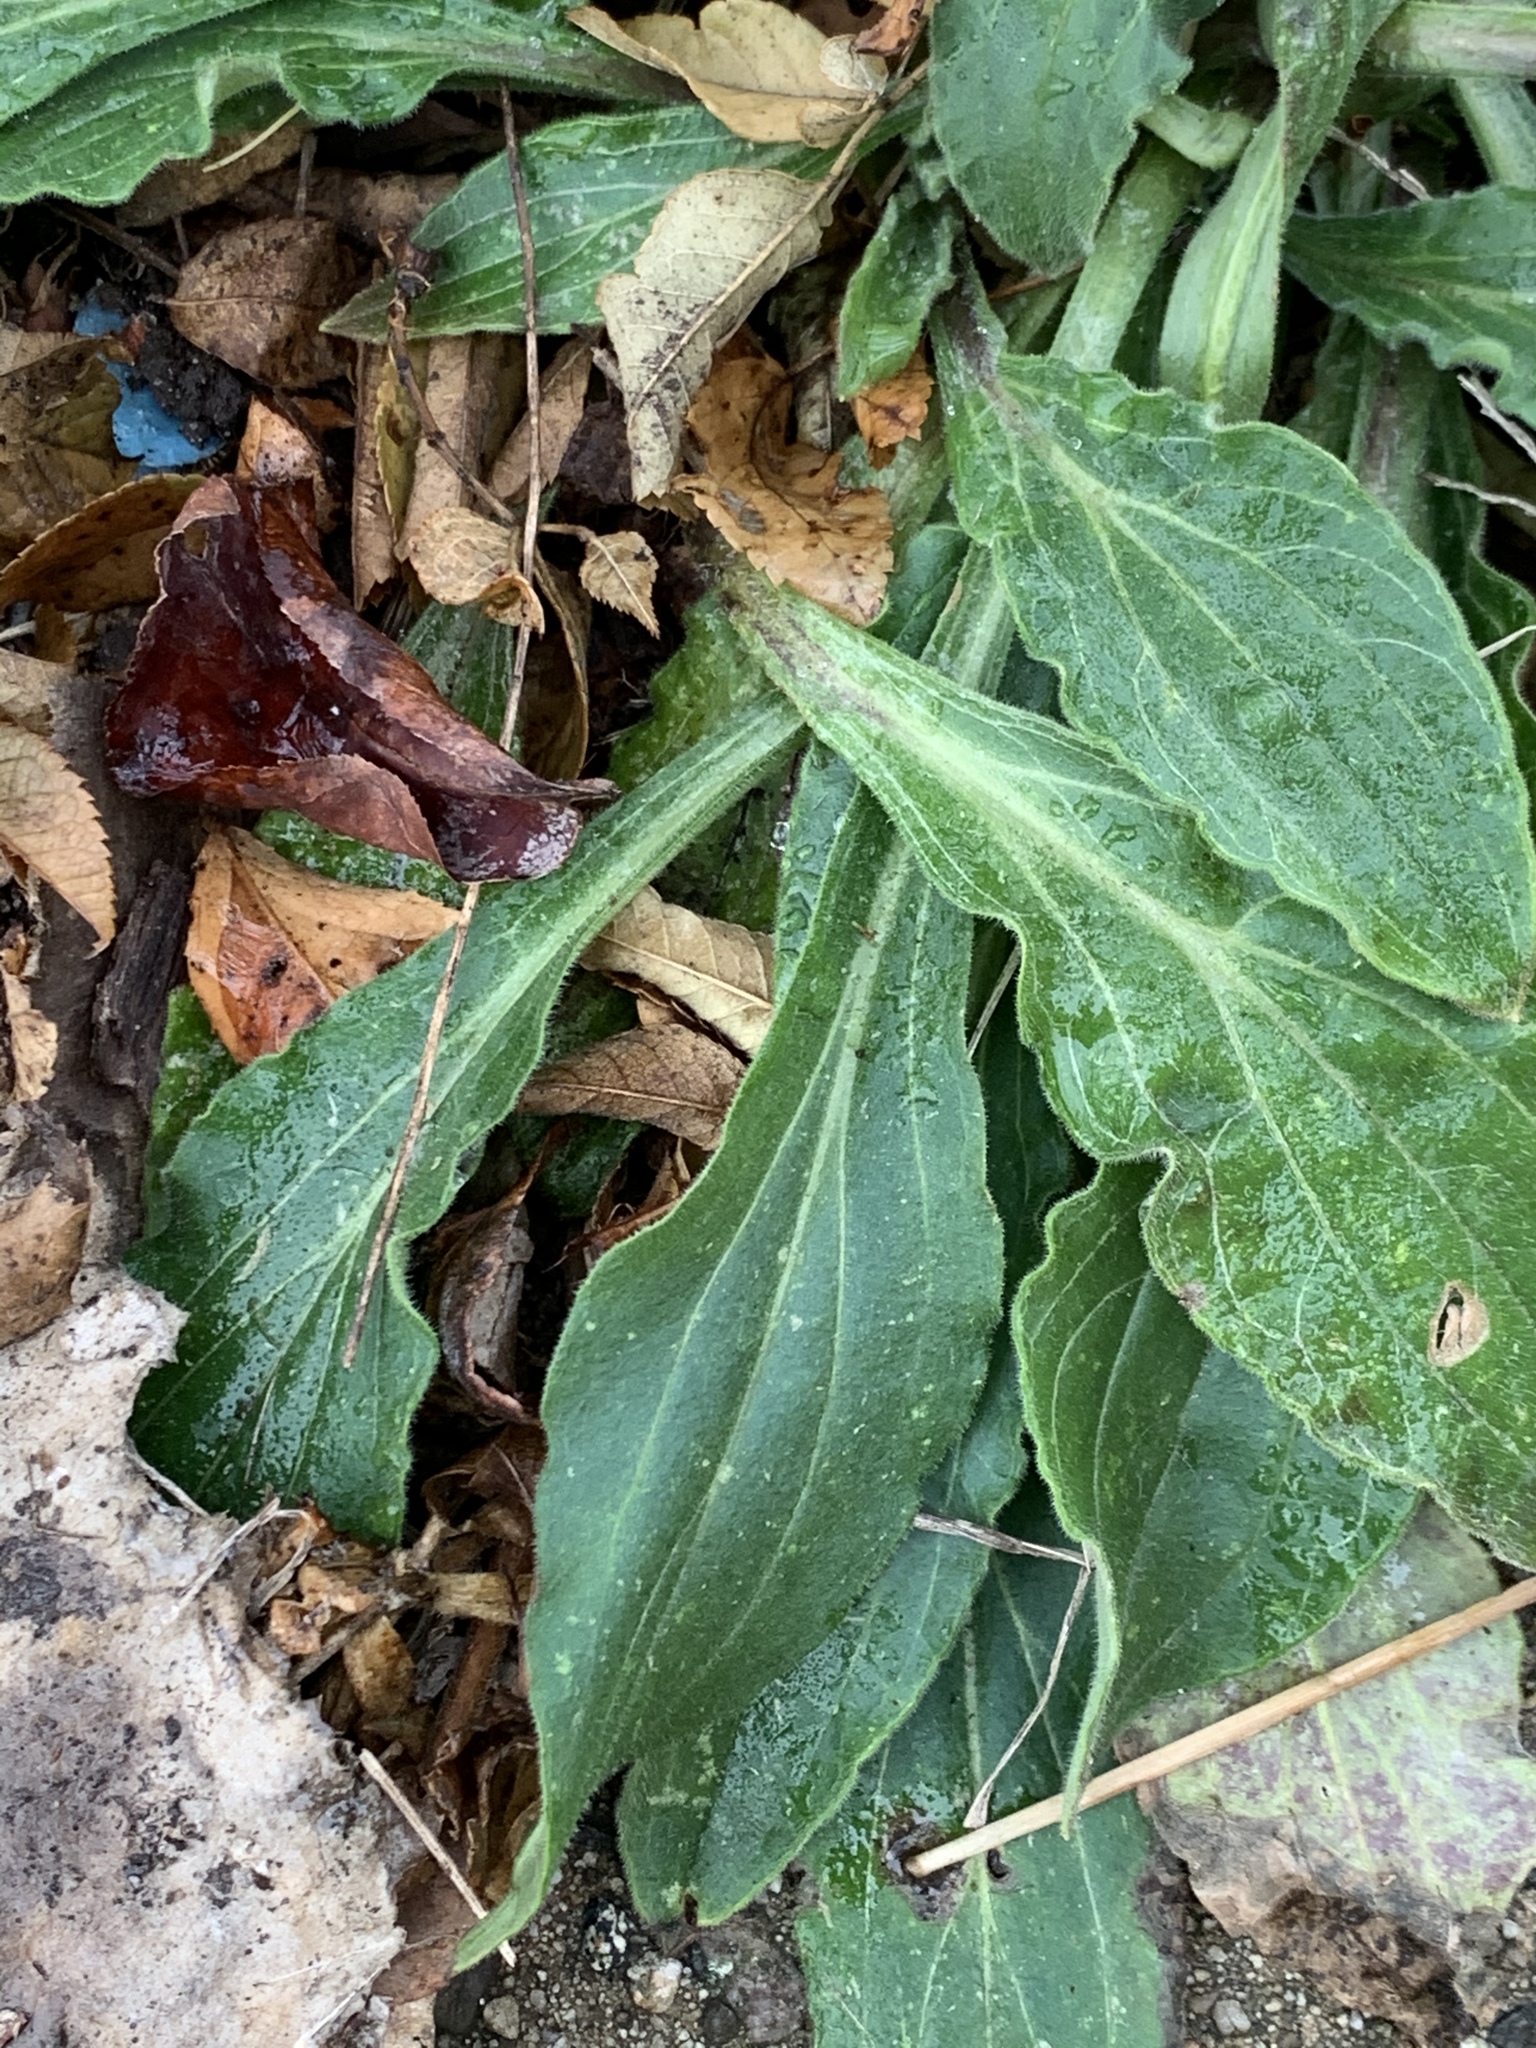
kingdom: Plantae
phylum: Tracheophyta
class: Magnoliopsida
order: Caryophyllales
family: Caryophyllaceae
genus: Silene
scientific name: Silene latifolia
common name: White campion
